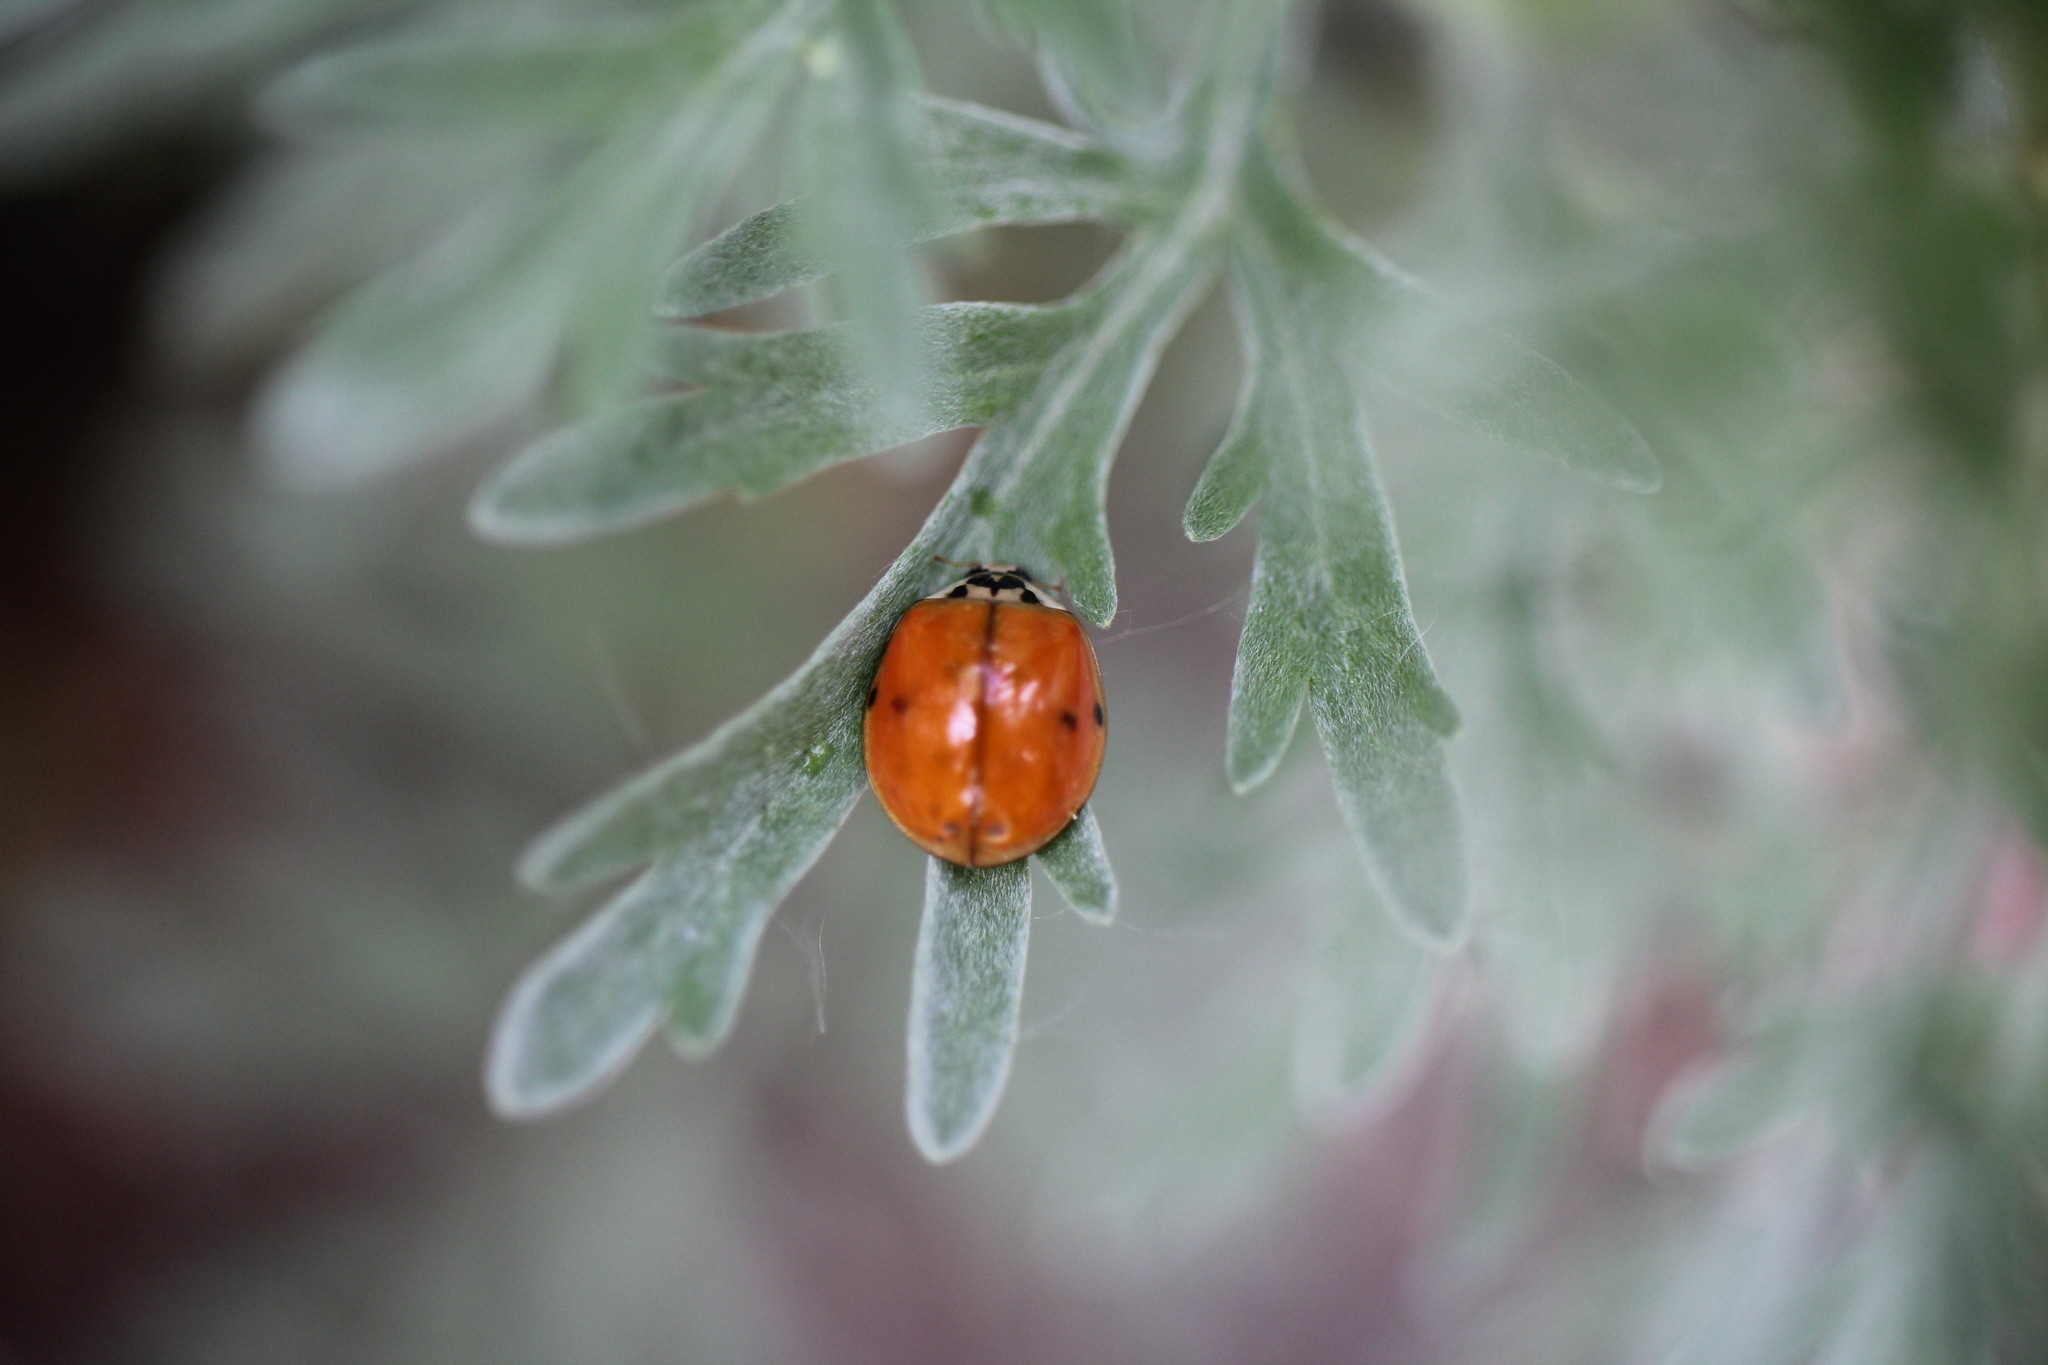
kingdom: Animalia
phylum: Arthropoda
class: Insecta
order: Coleoptera
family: Coccinellidae
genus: Harmonia
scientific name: Harmonia axyridis
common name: Harlequin ladybird
